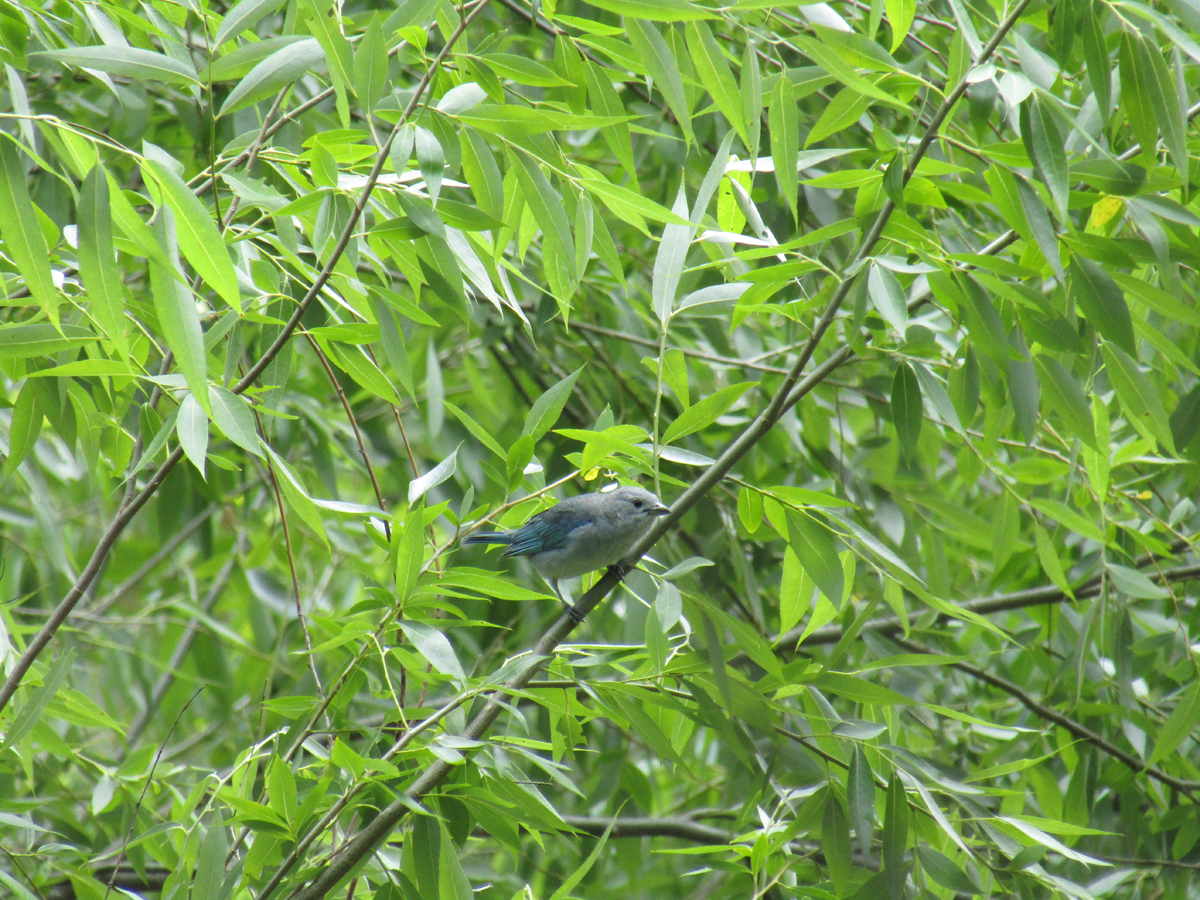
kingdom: Animalia
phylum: Chordata
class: Aves
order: Passeriformes
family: Thraupidae
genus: Thraupis
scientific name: Thraupis sayaca
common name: Sayaca tanager
